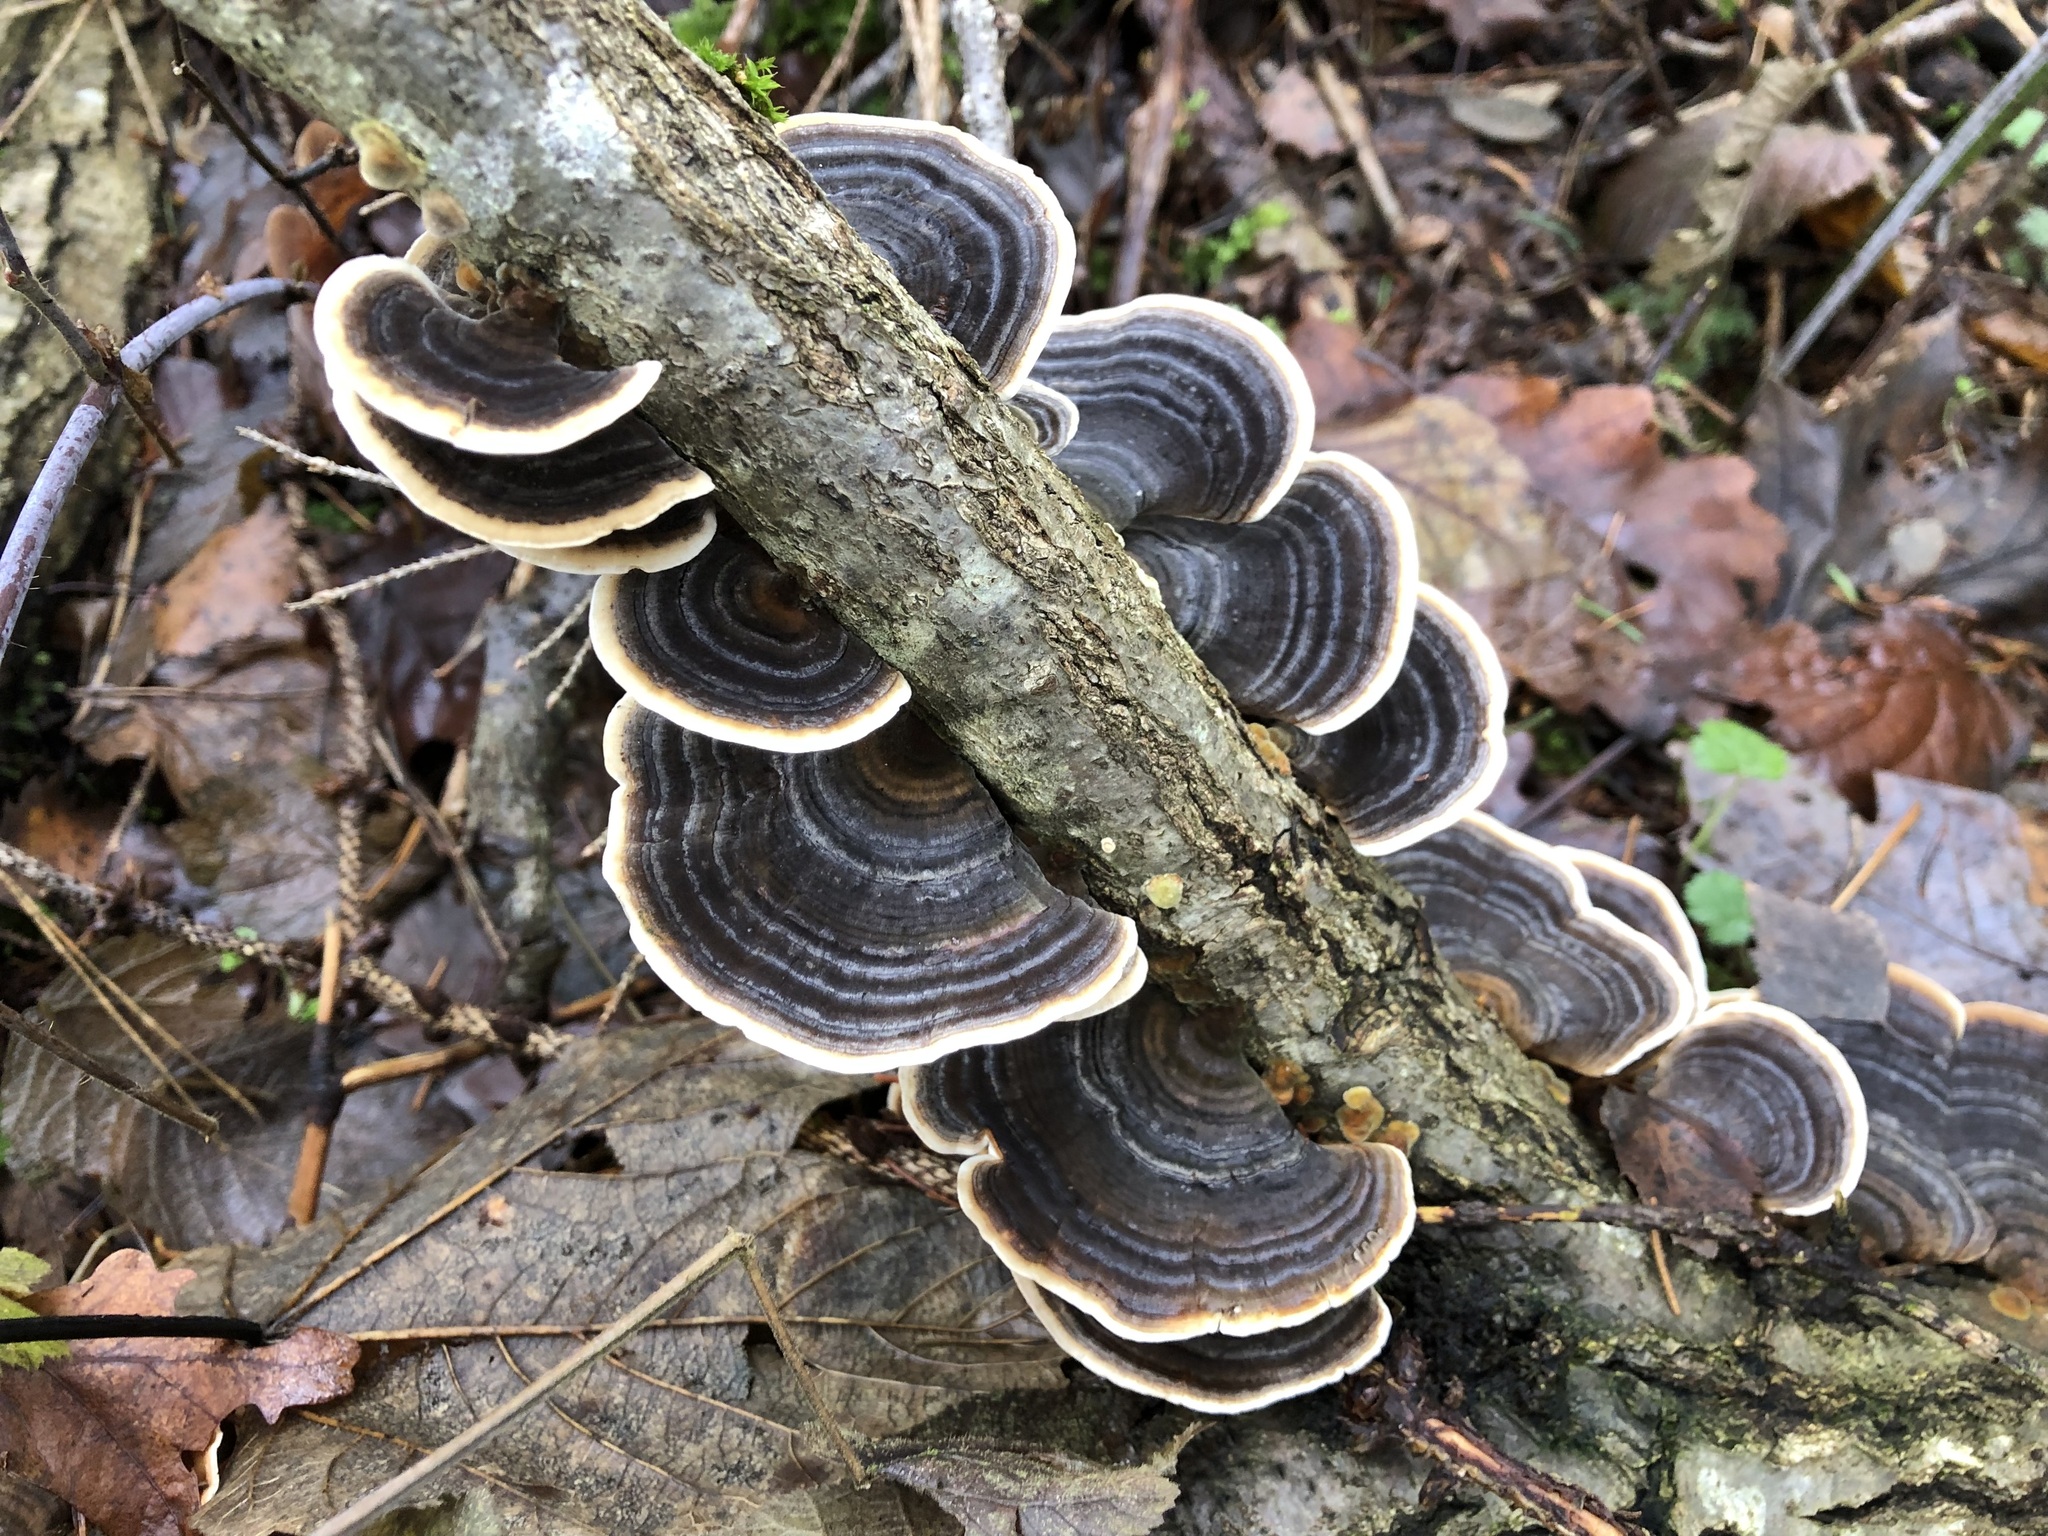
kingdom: Fungi
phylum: Basidiomycota
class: Agaricomycetes
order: Polyporales
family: Polyporaceae
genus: Trametes
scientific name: Trametes versicolor
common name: Turkeytail
